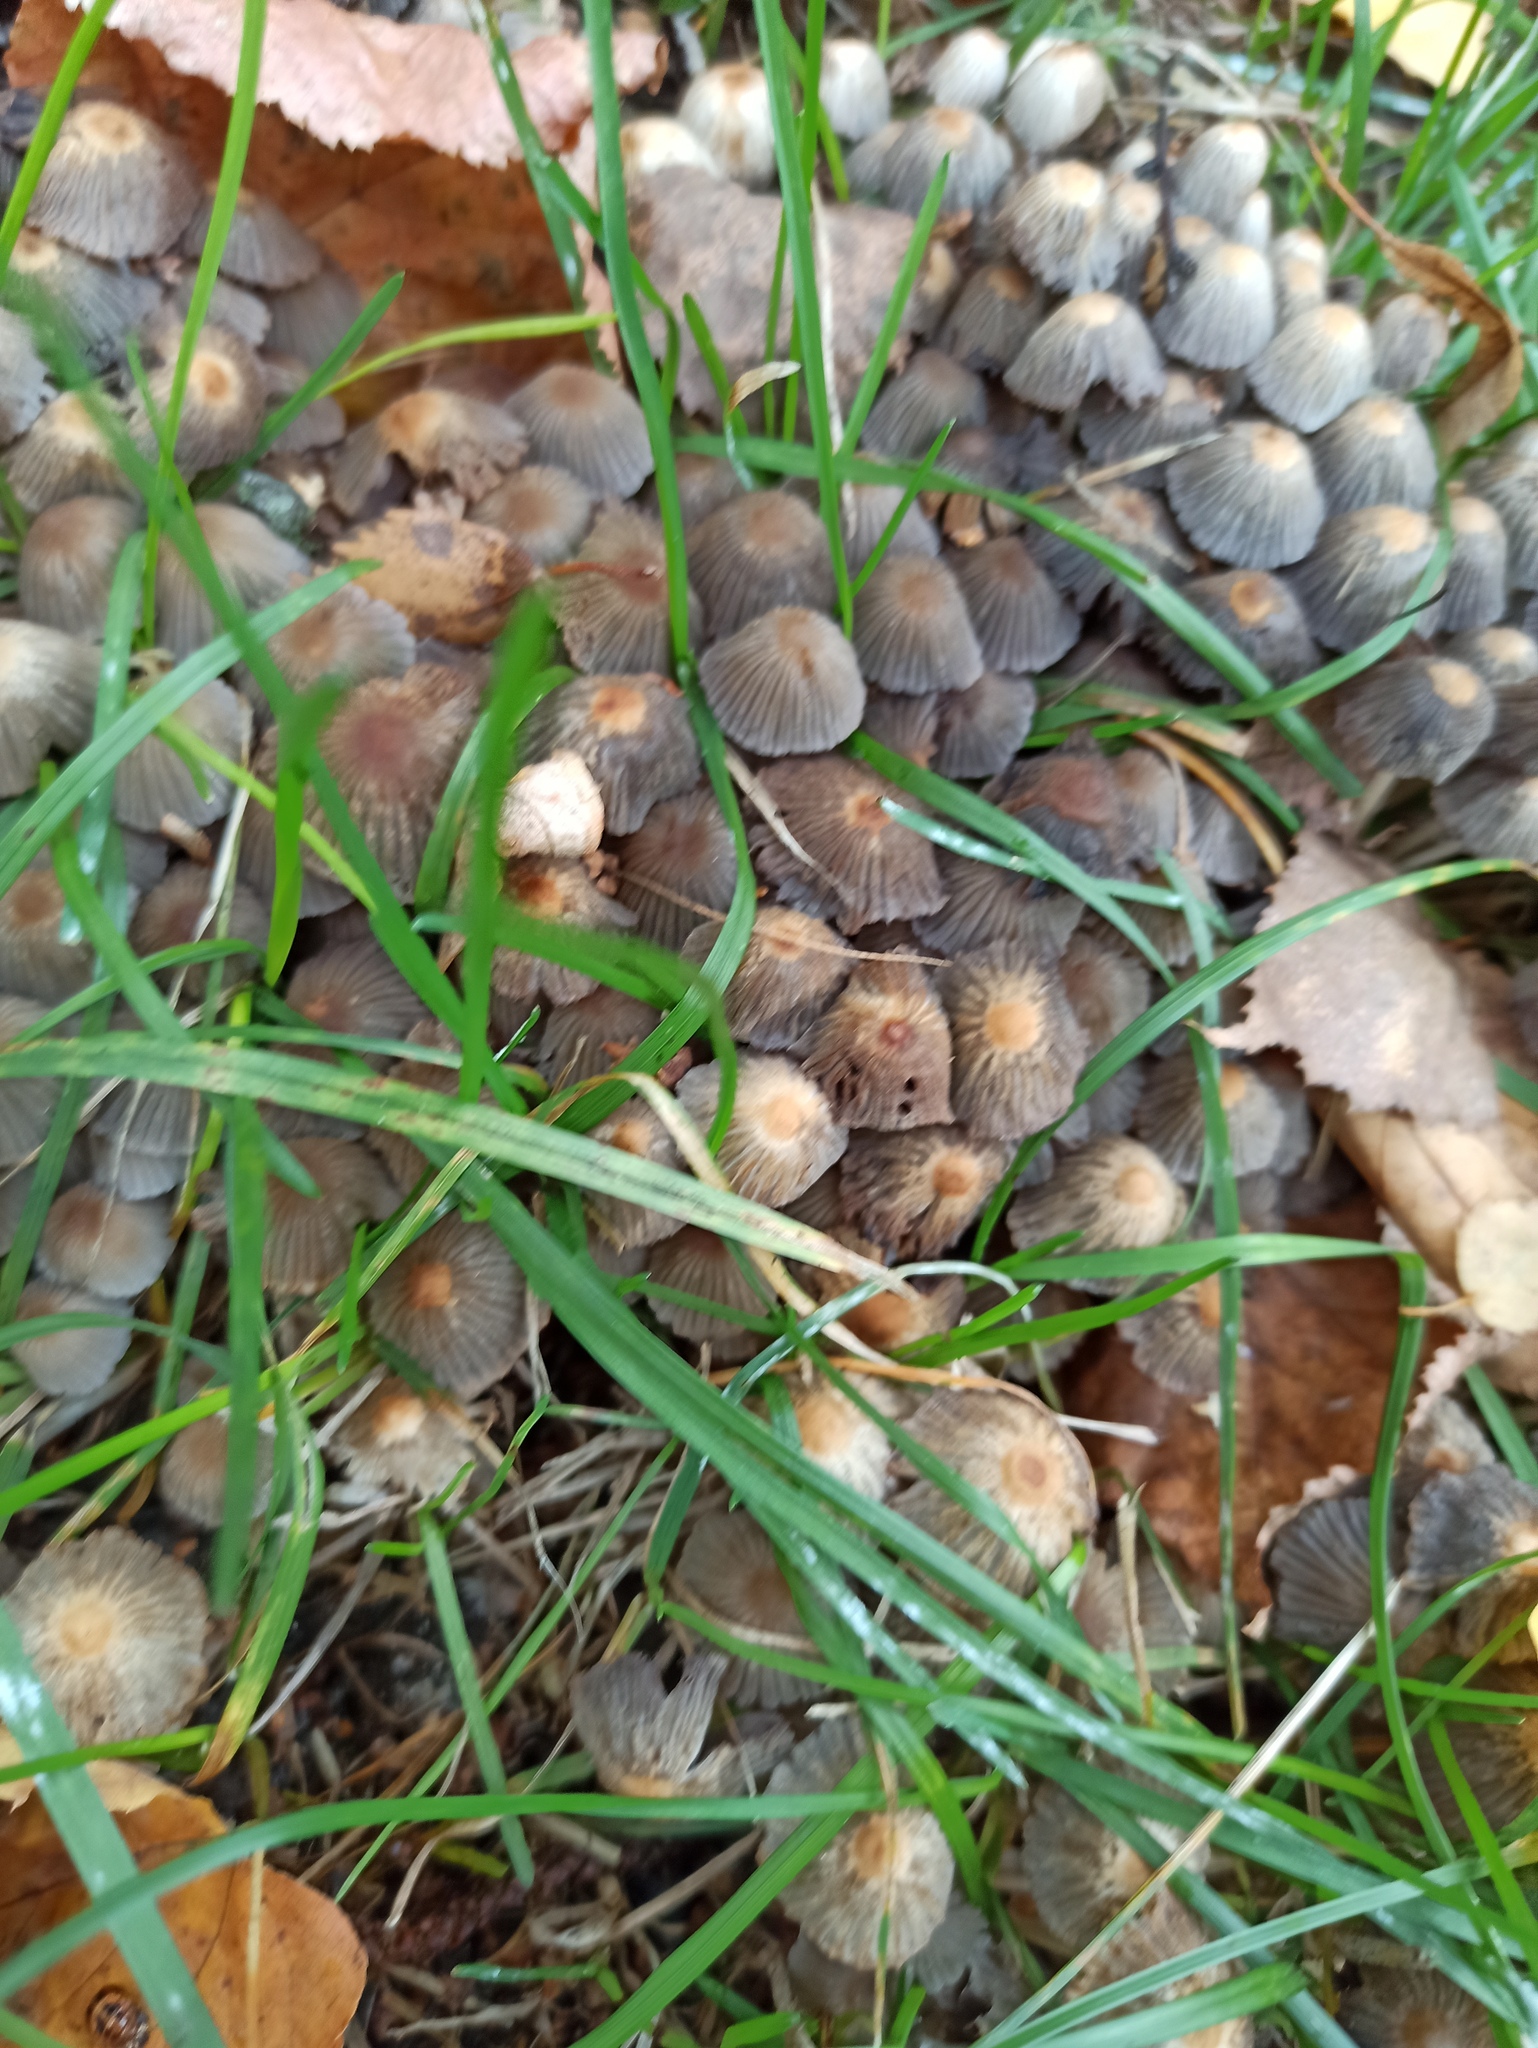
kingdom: Fungi
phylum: Basidiomycota
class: Agaricomycetes
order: Agaricales
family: Psathyrellaceae
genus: Coprinellus
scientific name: Coprinellus disseminatus
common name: Fairies' bonnets
